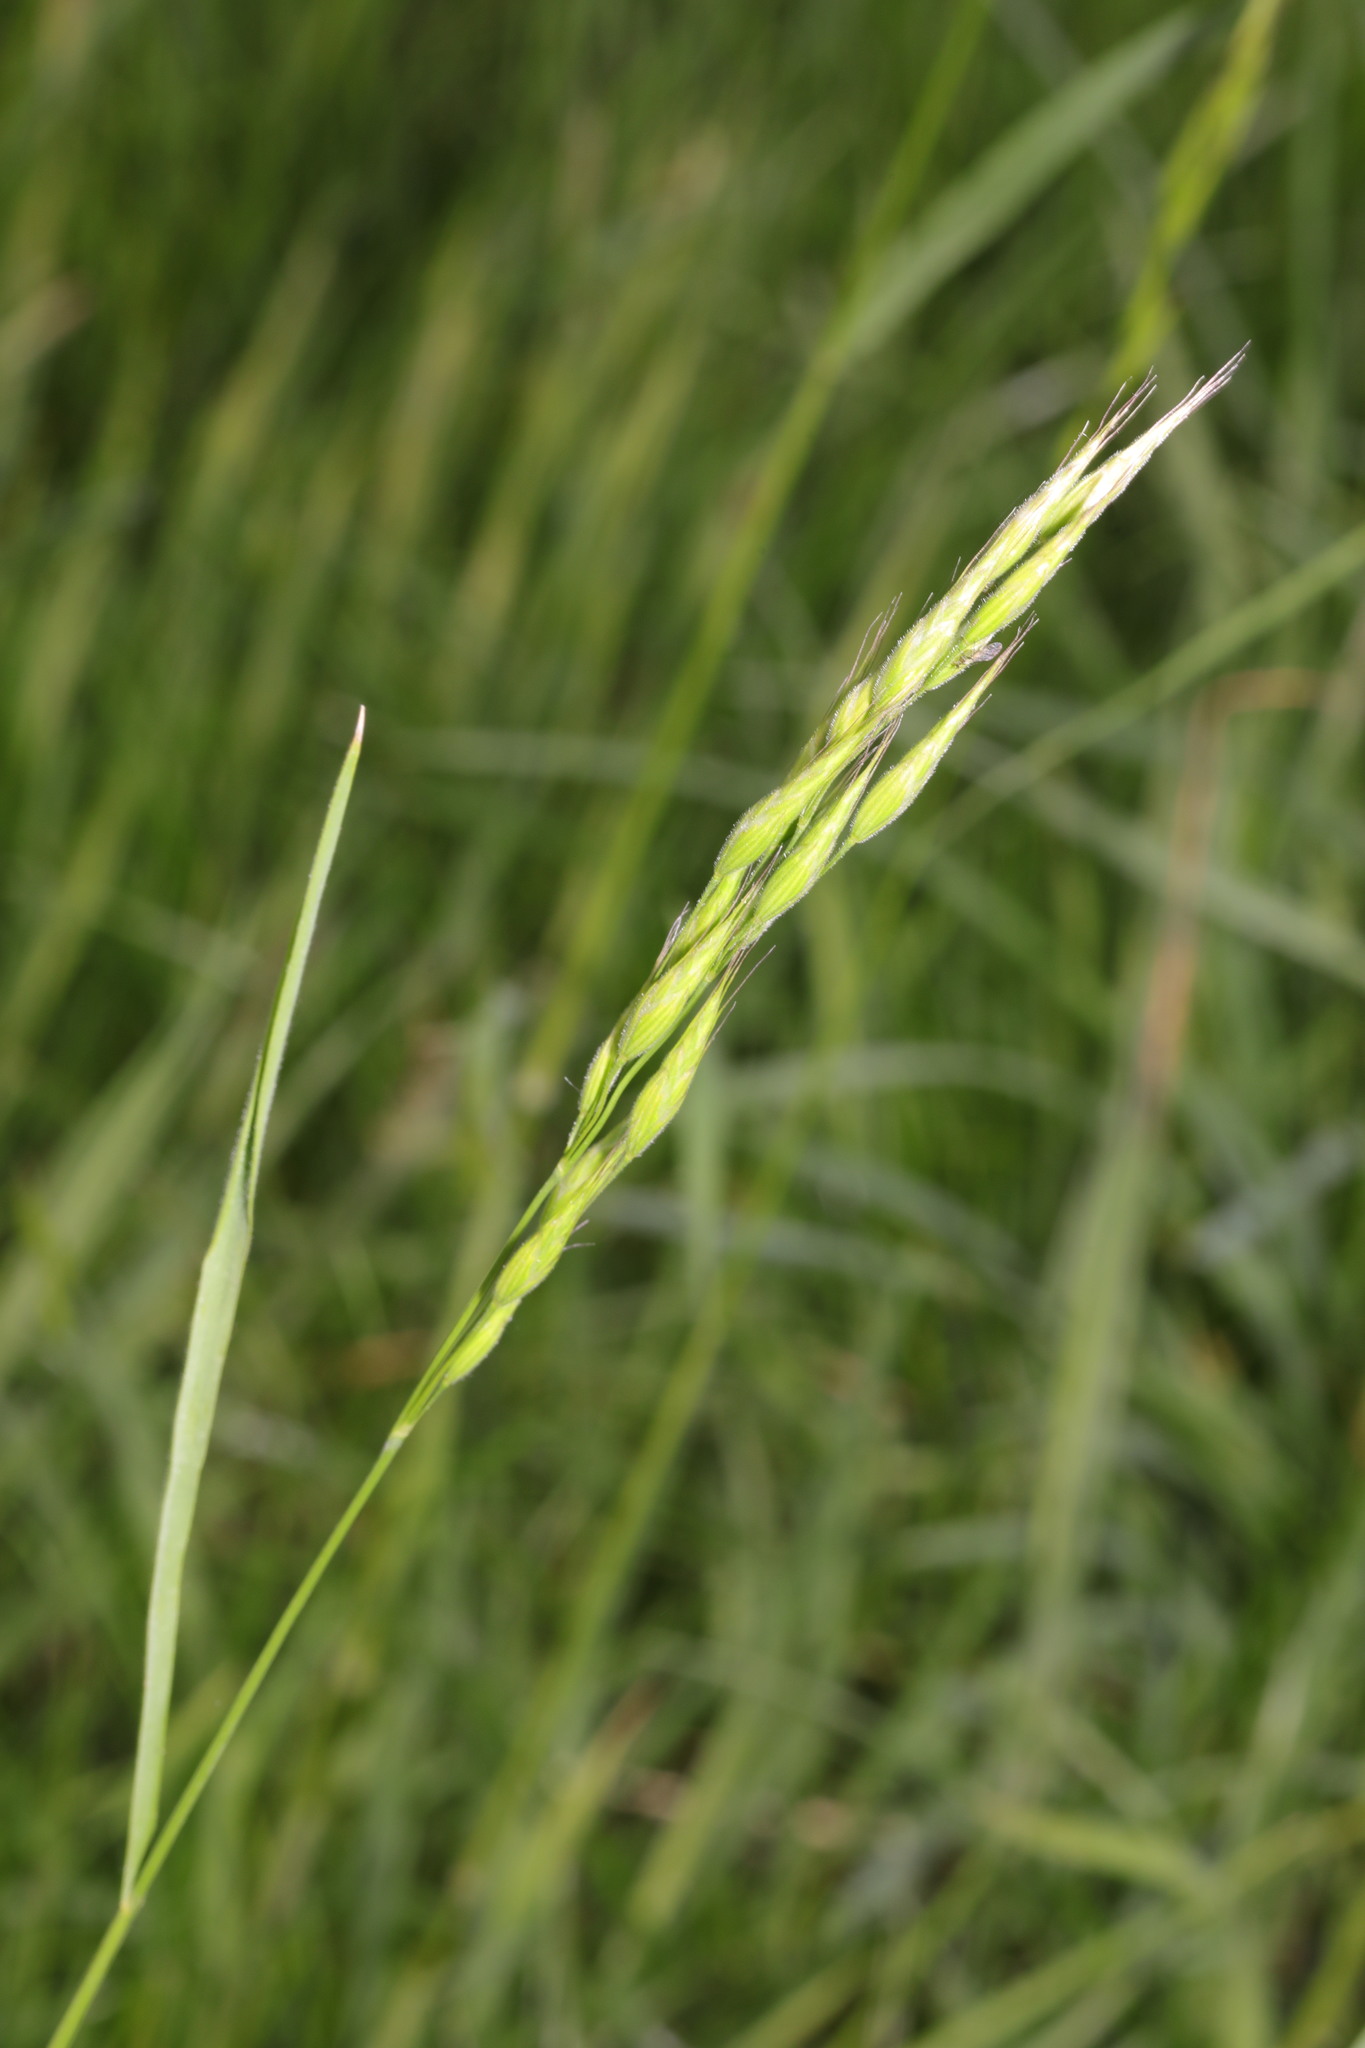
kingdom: Plantae
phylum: Tracheophyta
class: Liliopsida
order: Poales
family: Poaceae
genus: Bromus
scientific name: Bromus hordeaceus
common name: Soft brome
